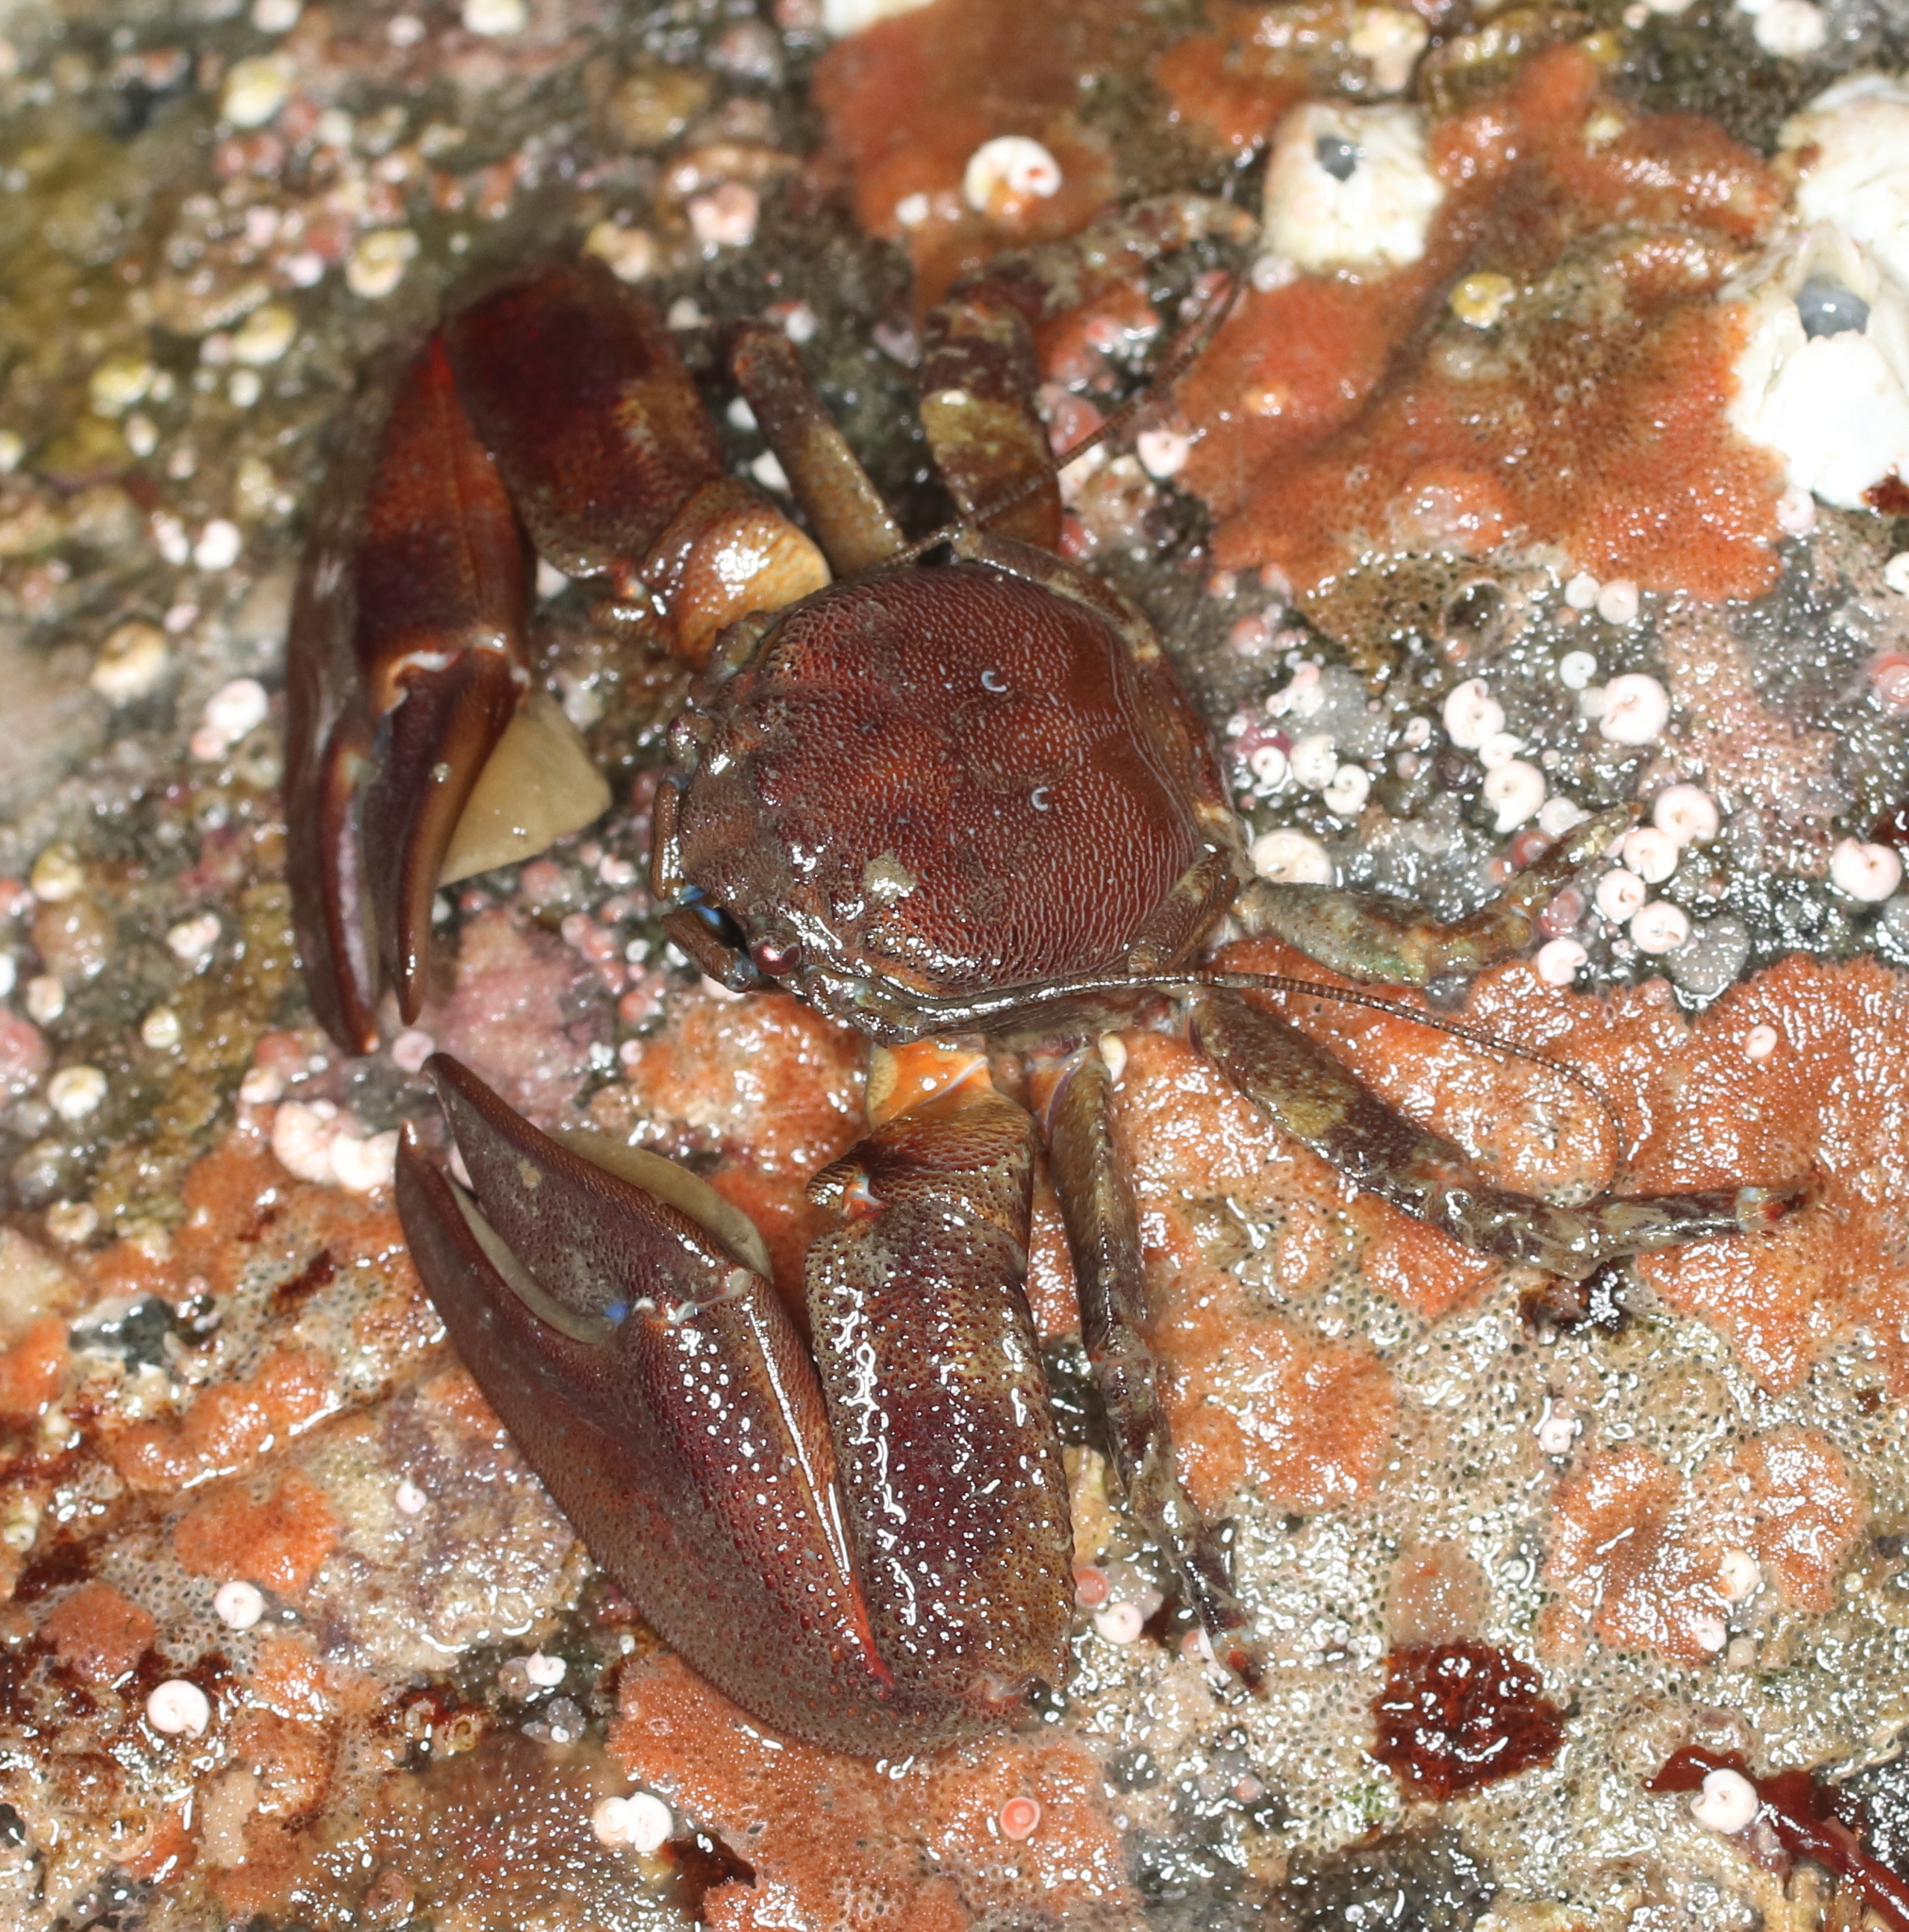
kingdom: Animalia
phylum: Arthropoda
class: Malacostraca
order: Decapoda
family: Porcellanidae
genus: Petrolisthes
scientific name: Petrolisthes eriomerus
